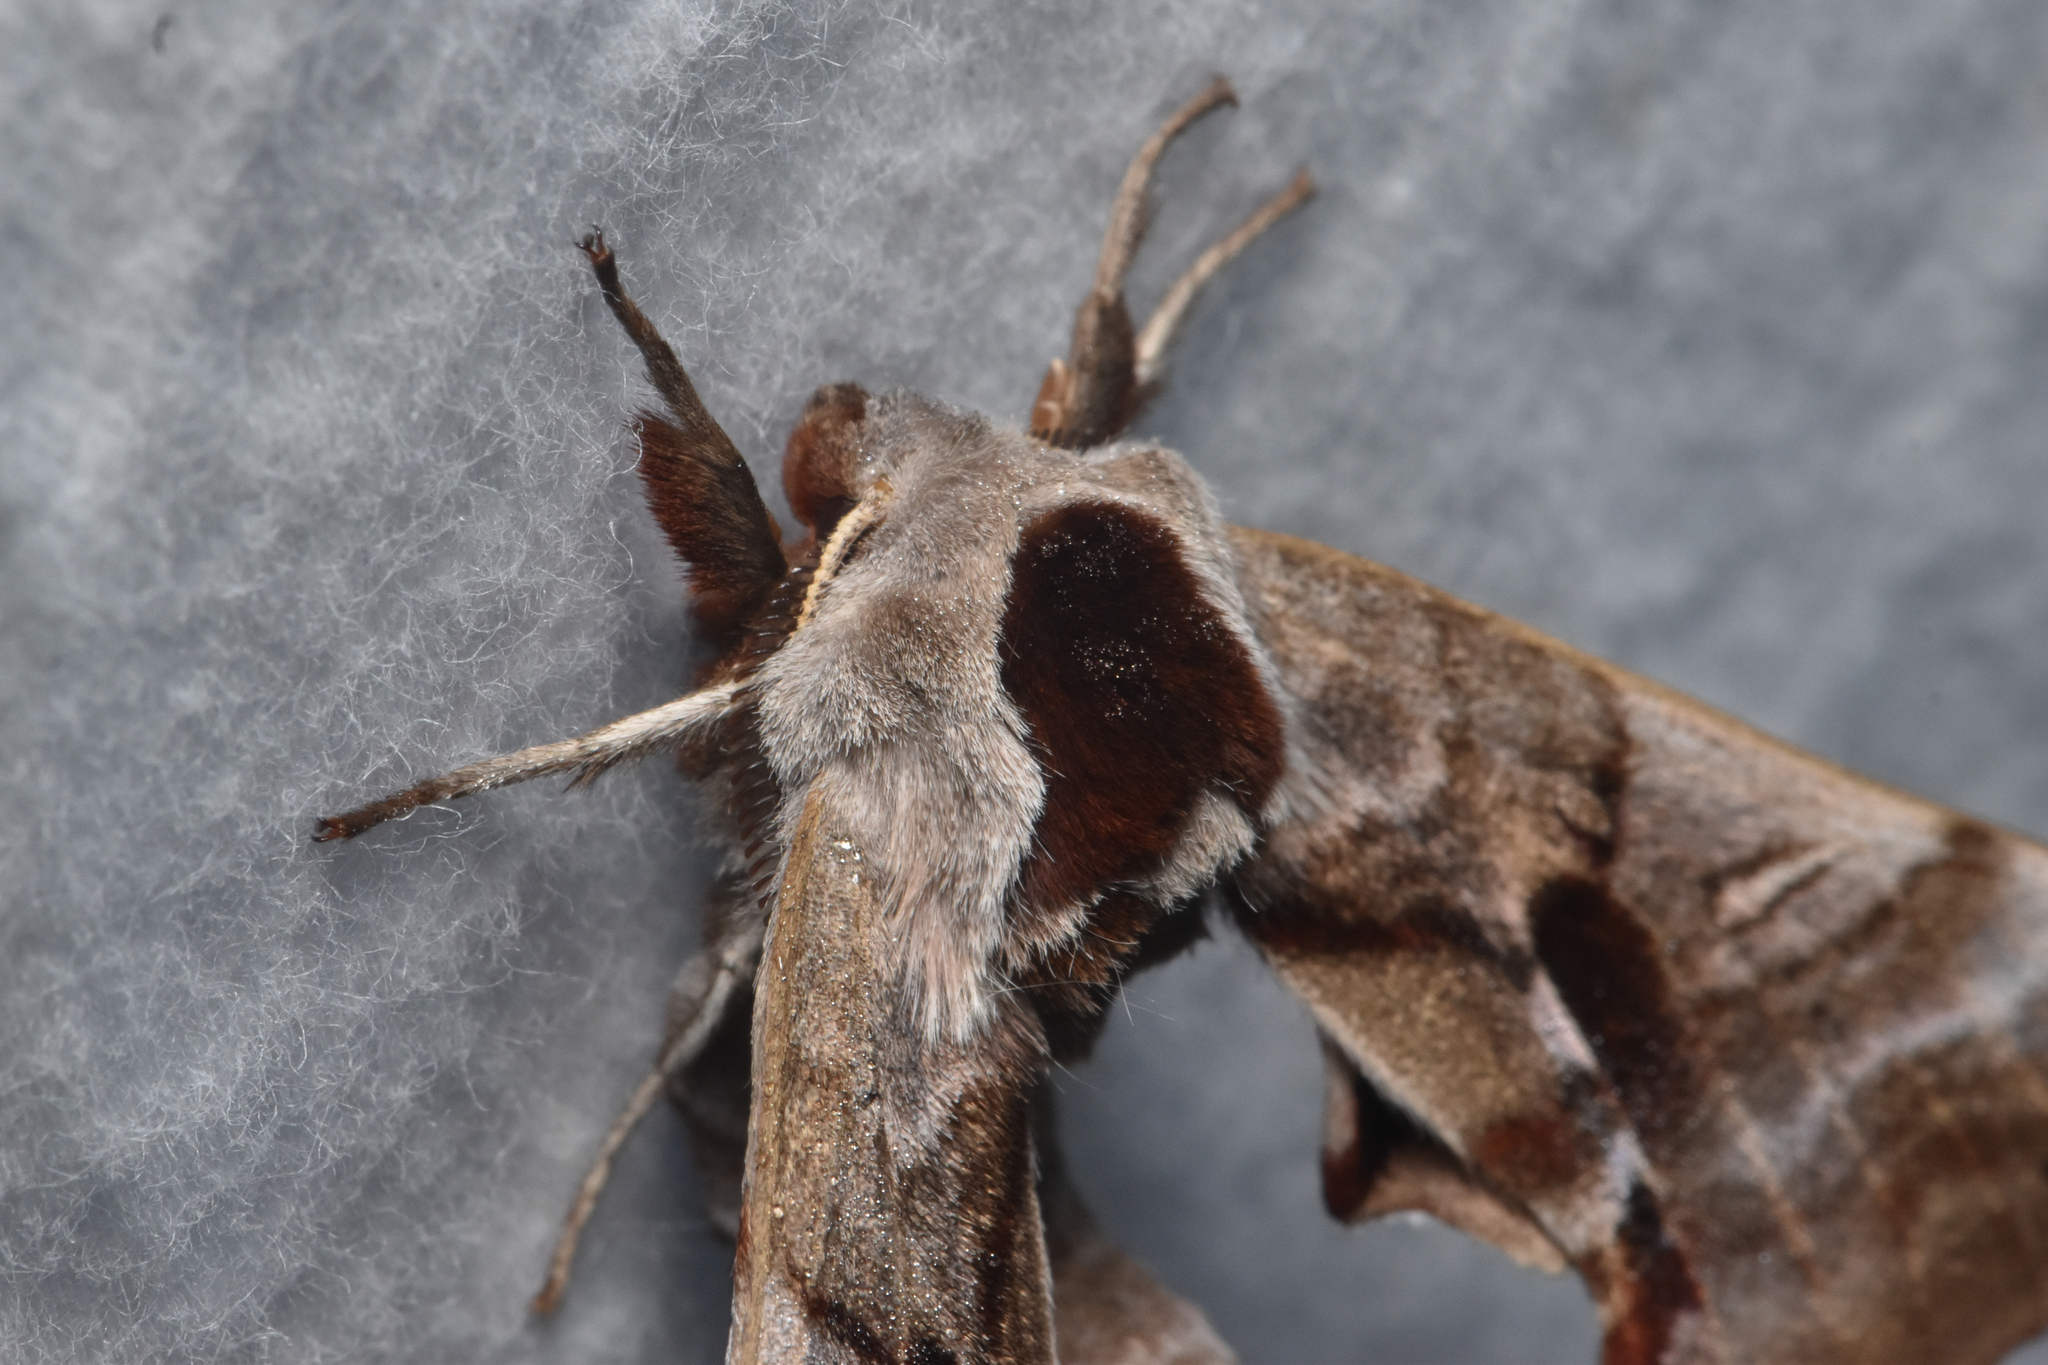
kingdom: Animalia
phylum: Arthropoda
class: Insecta
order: Lepidoptera
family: Sphingidae
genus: Smerinthus
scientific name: Smerinthus jamaicensis
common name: Twin spotted sphinx
